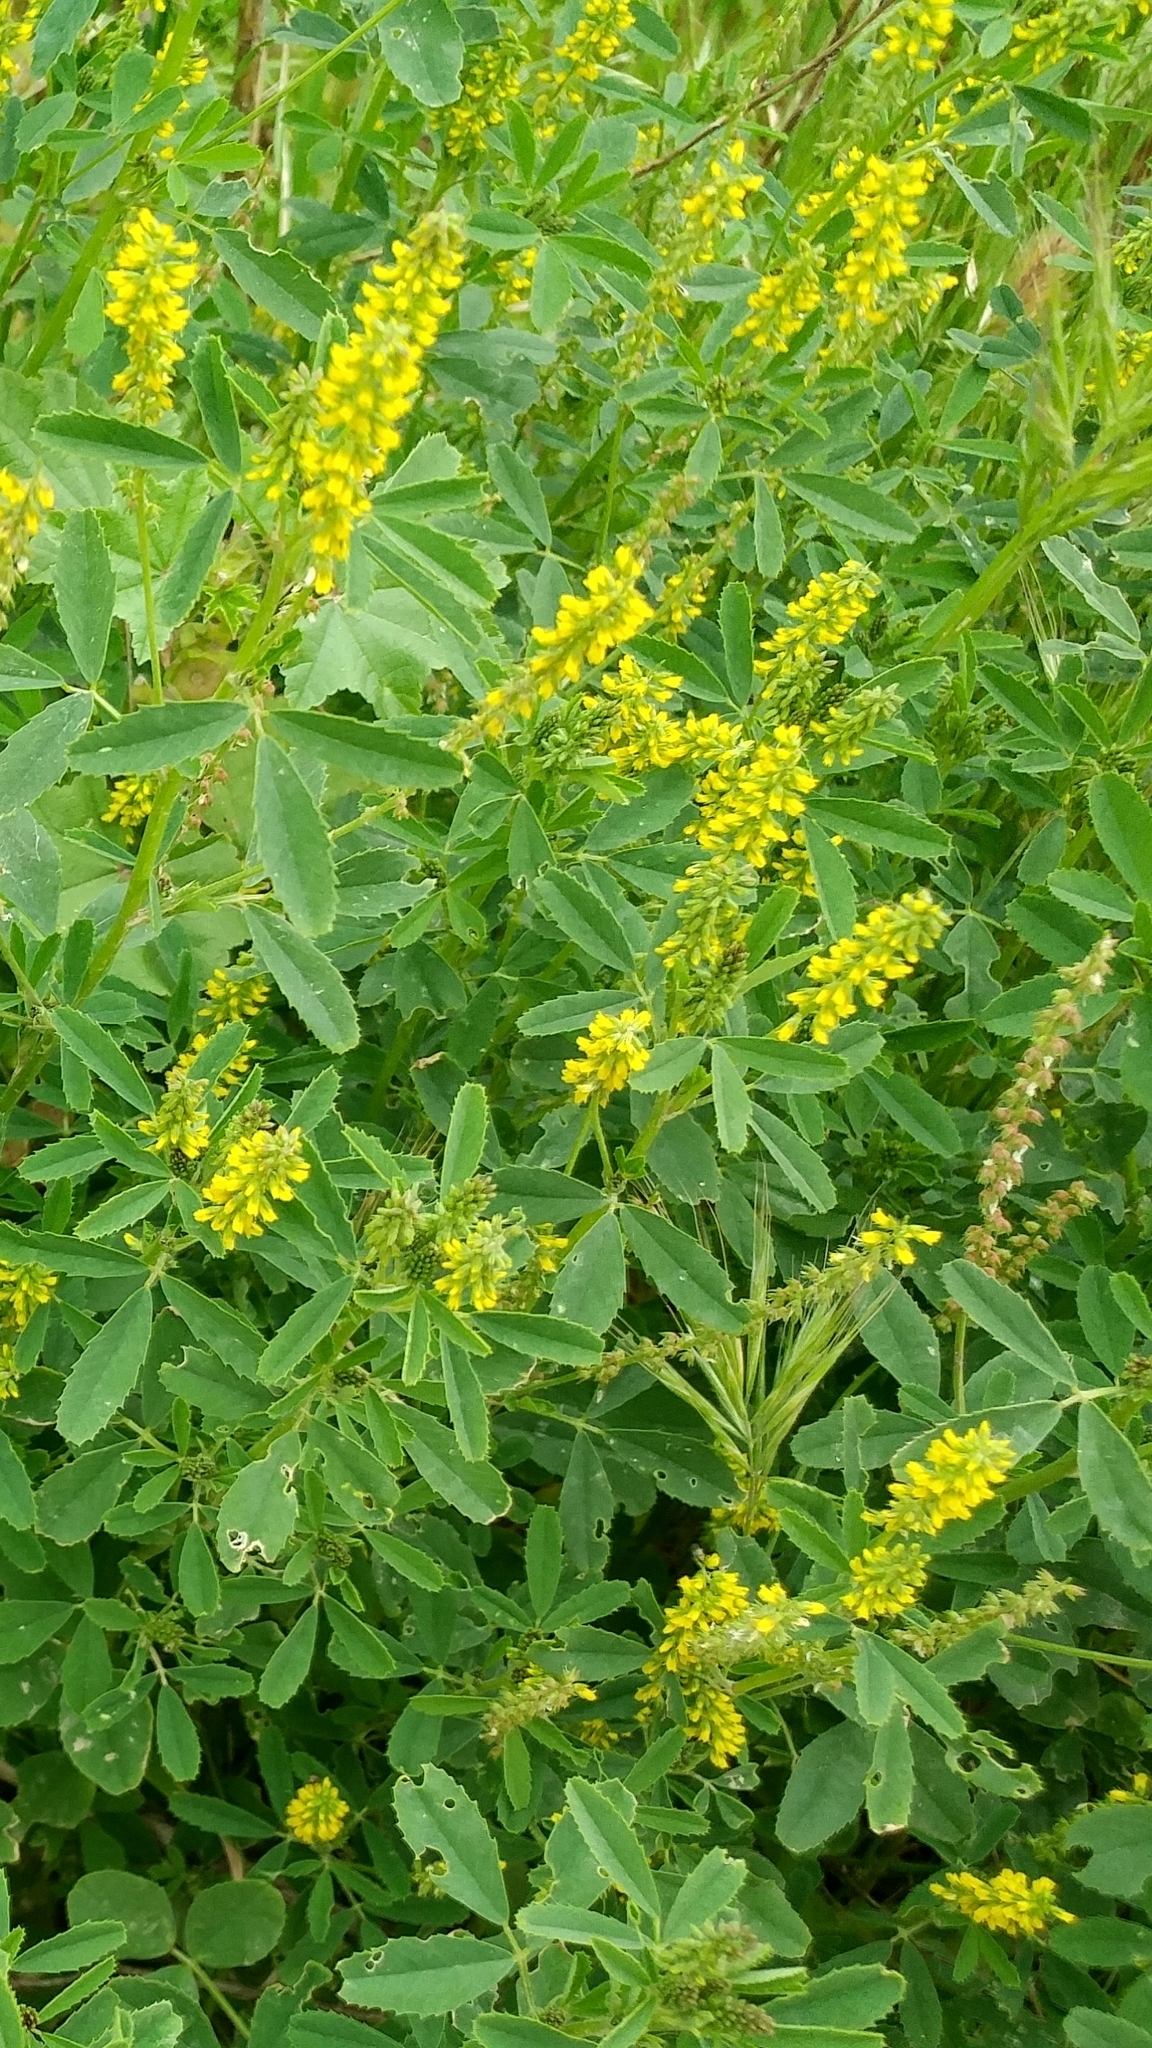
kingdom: Plantae
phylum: Tracheophyta
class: Magnoliopsida
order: Fabales
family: Fabaceae
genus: Melilotus
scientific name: Melilotus indicus
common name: Small melilot
